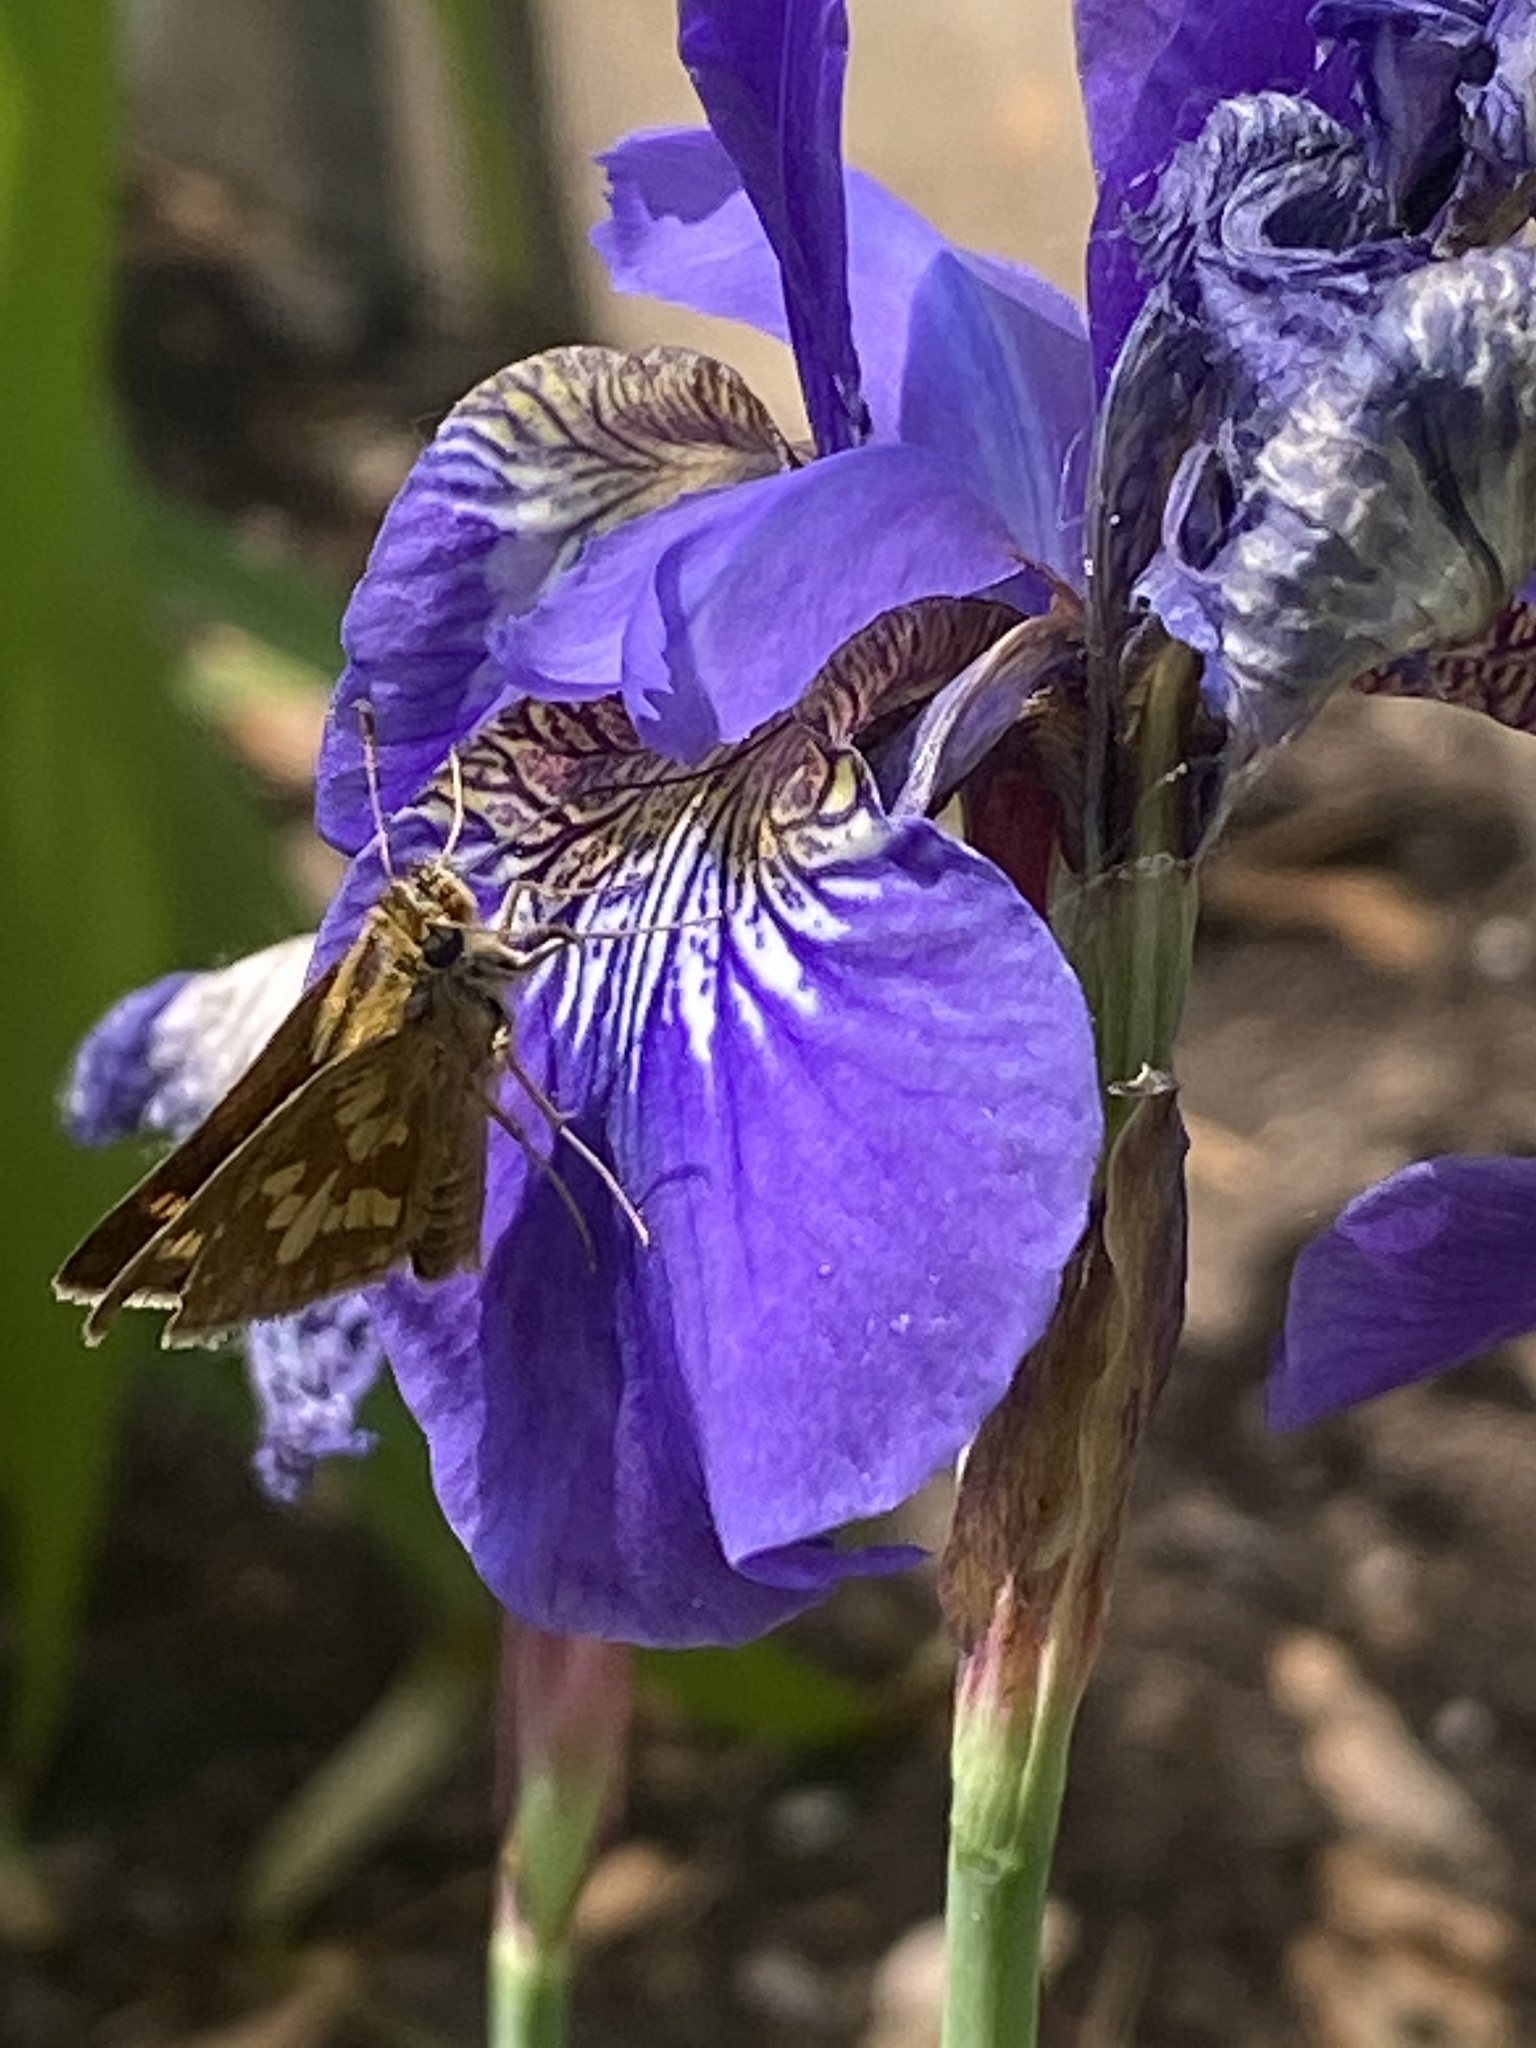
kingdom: Animalia
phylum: Arthropoda
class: Insecta
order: Lepidoptera
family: Hesperiidae
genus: Polites
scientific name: Polites coras
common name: Peck's skipper
